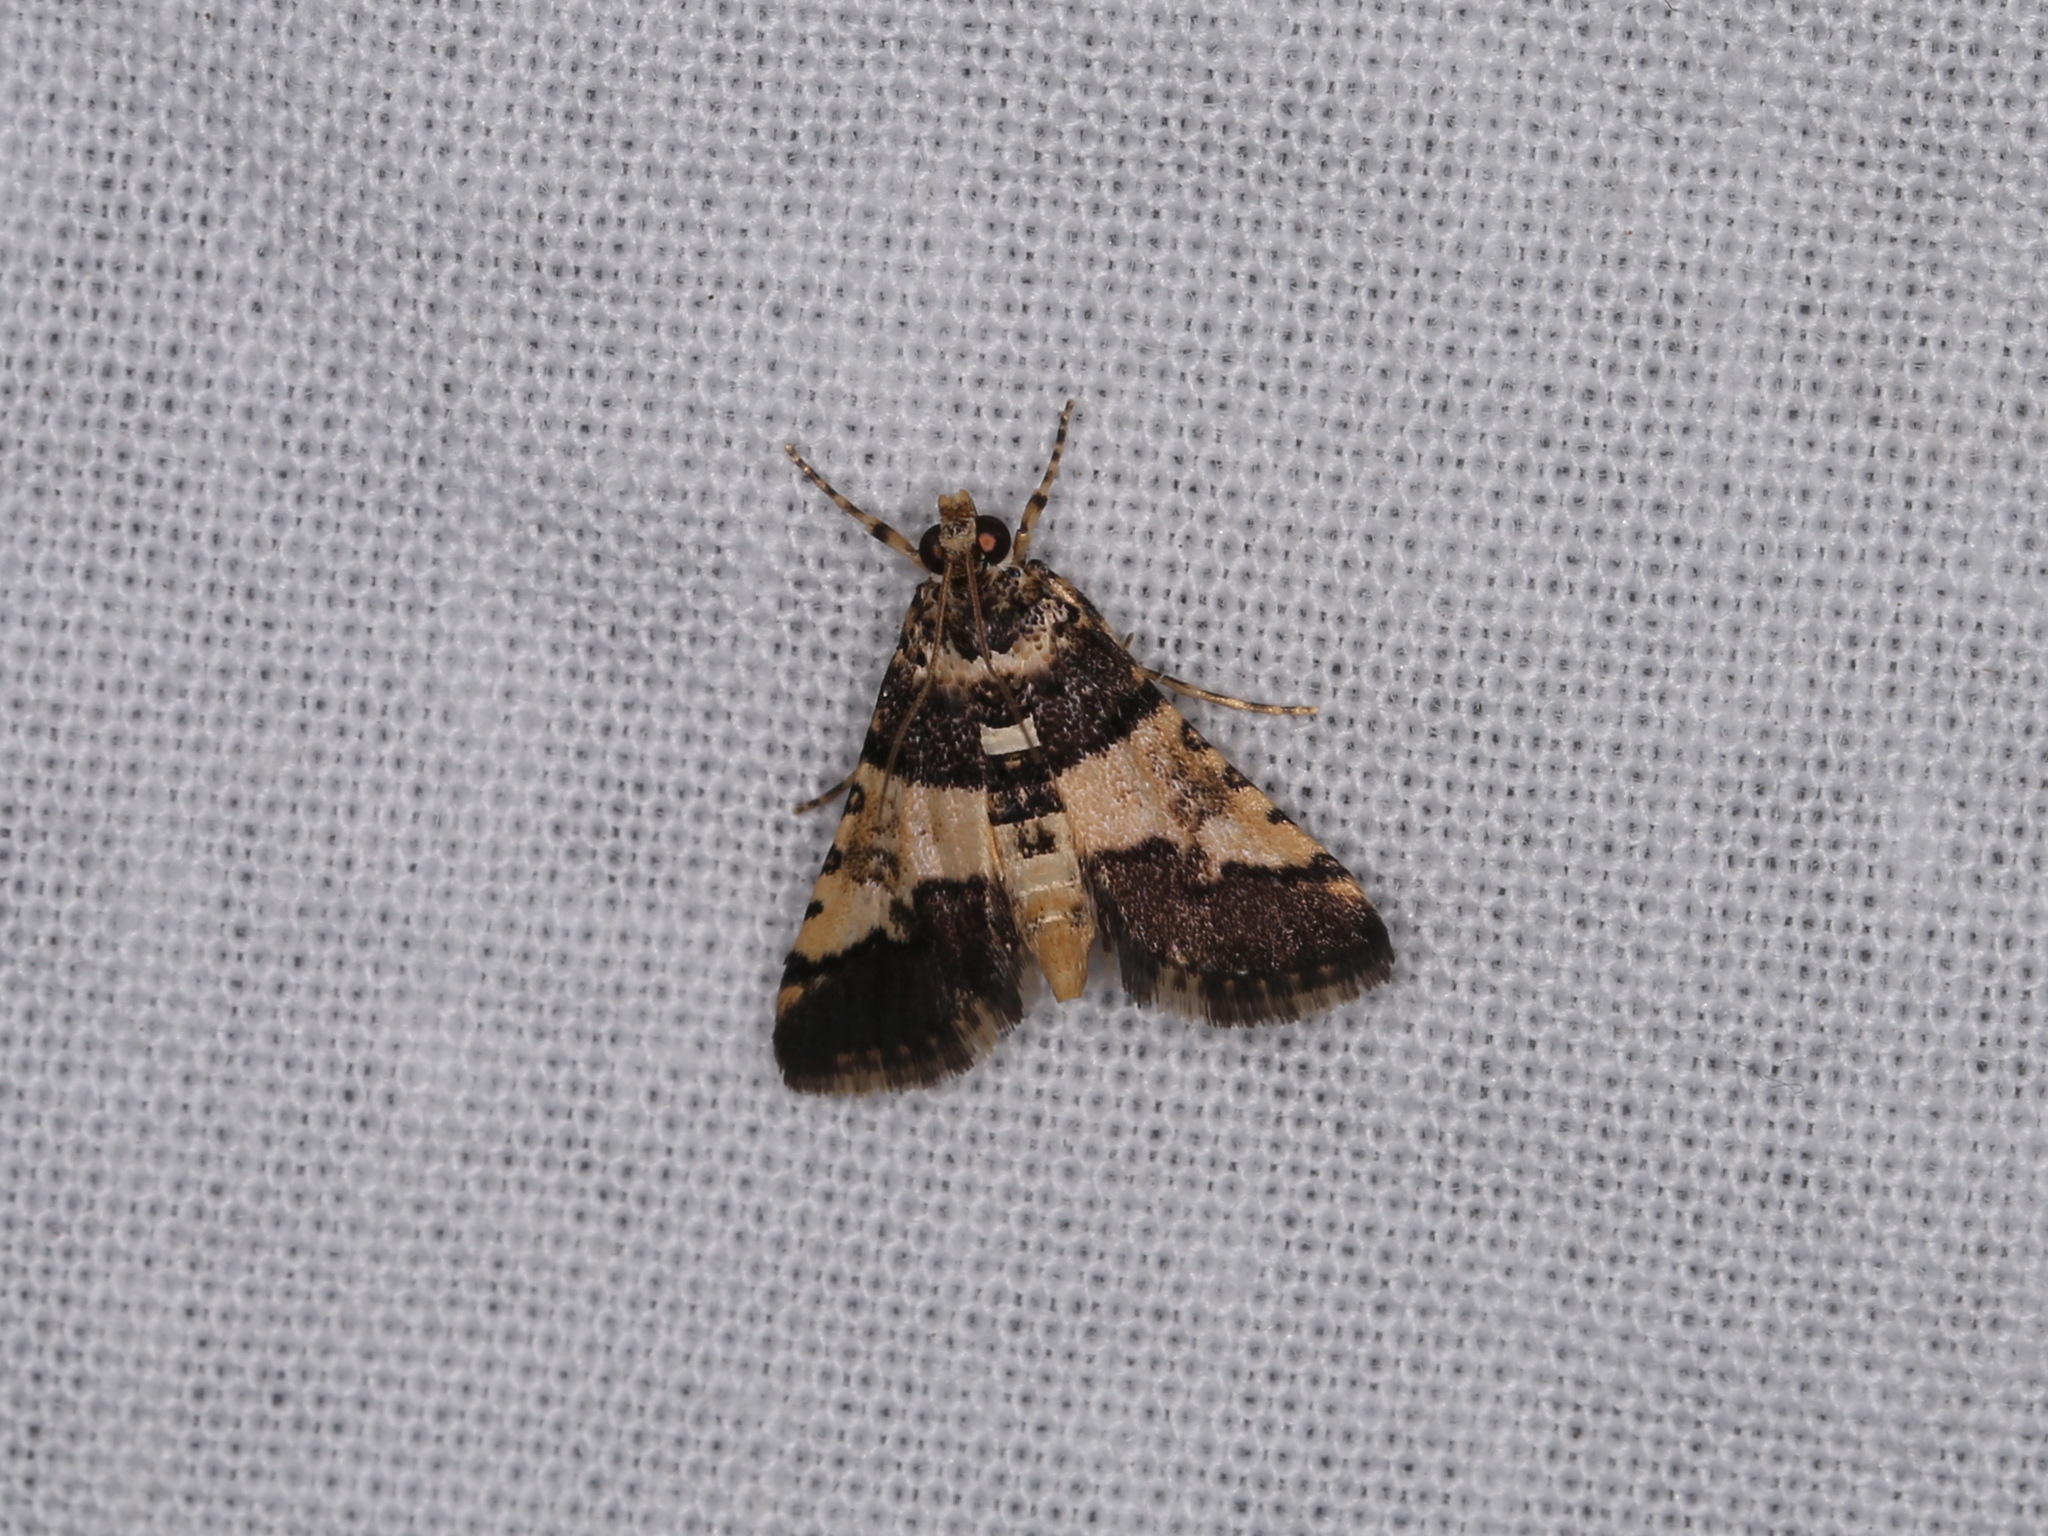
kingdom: Animalia
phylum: Arthropoda
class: Insecta
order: Lepidoptera
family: Crambidae
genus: Nacoleia
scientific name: Nacoleia mesochlora
